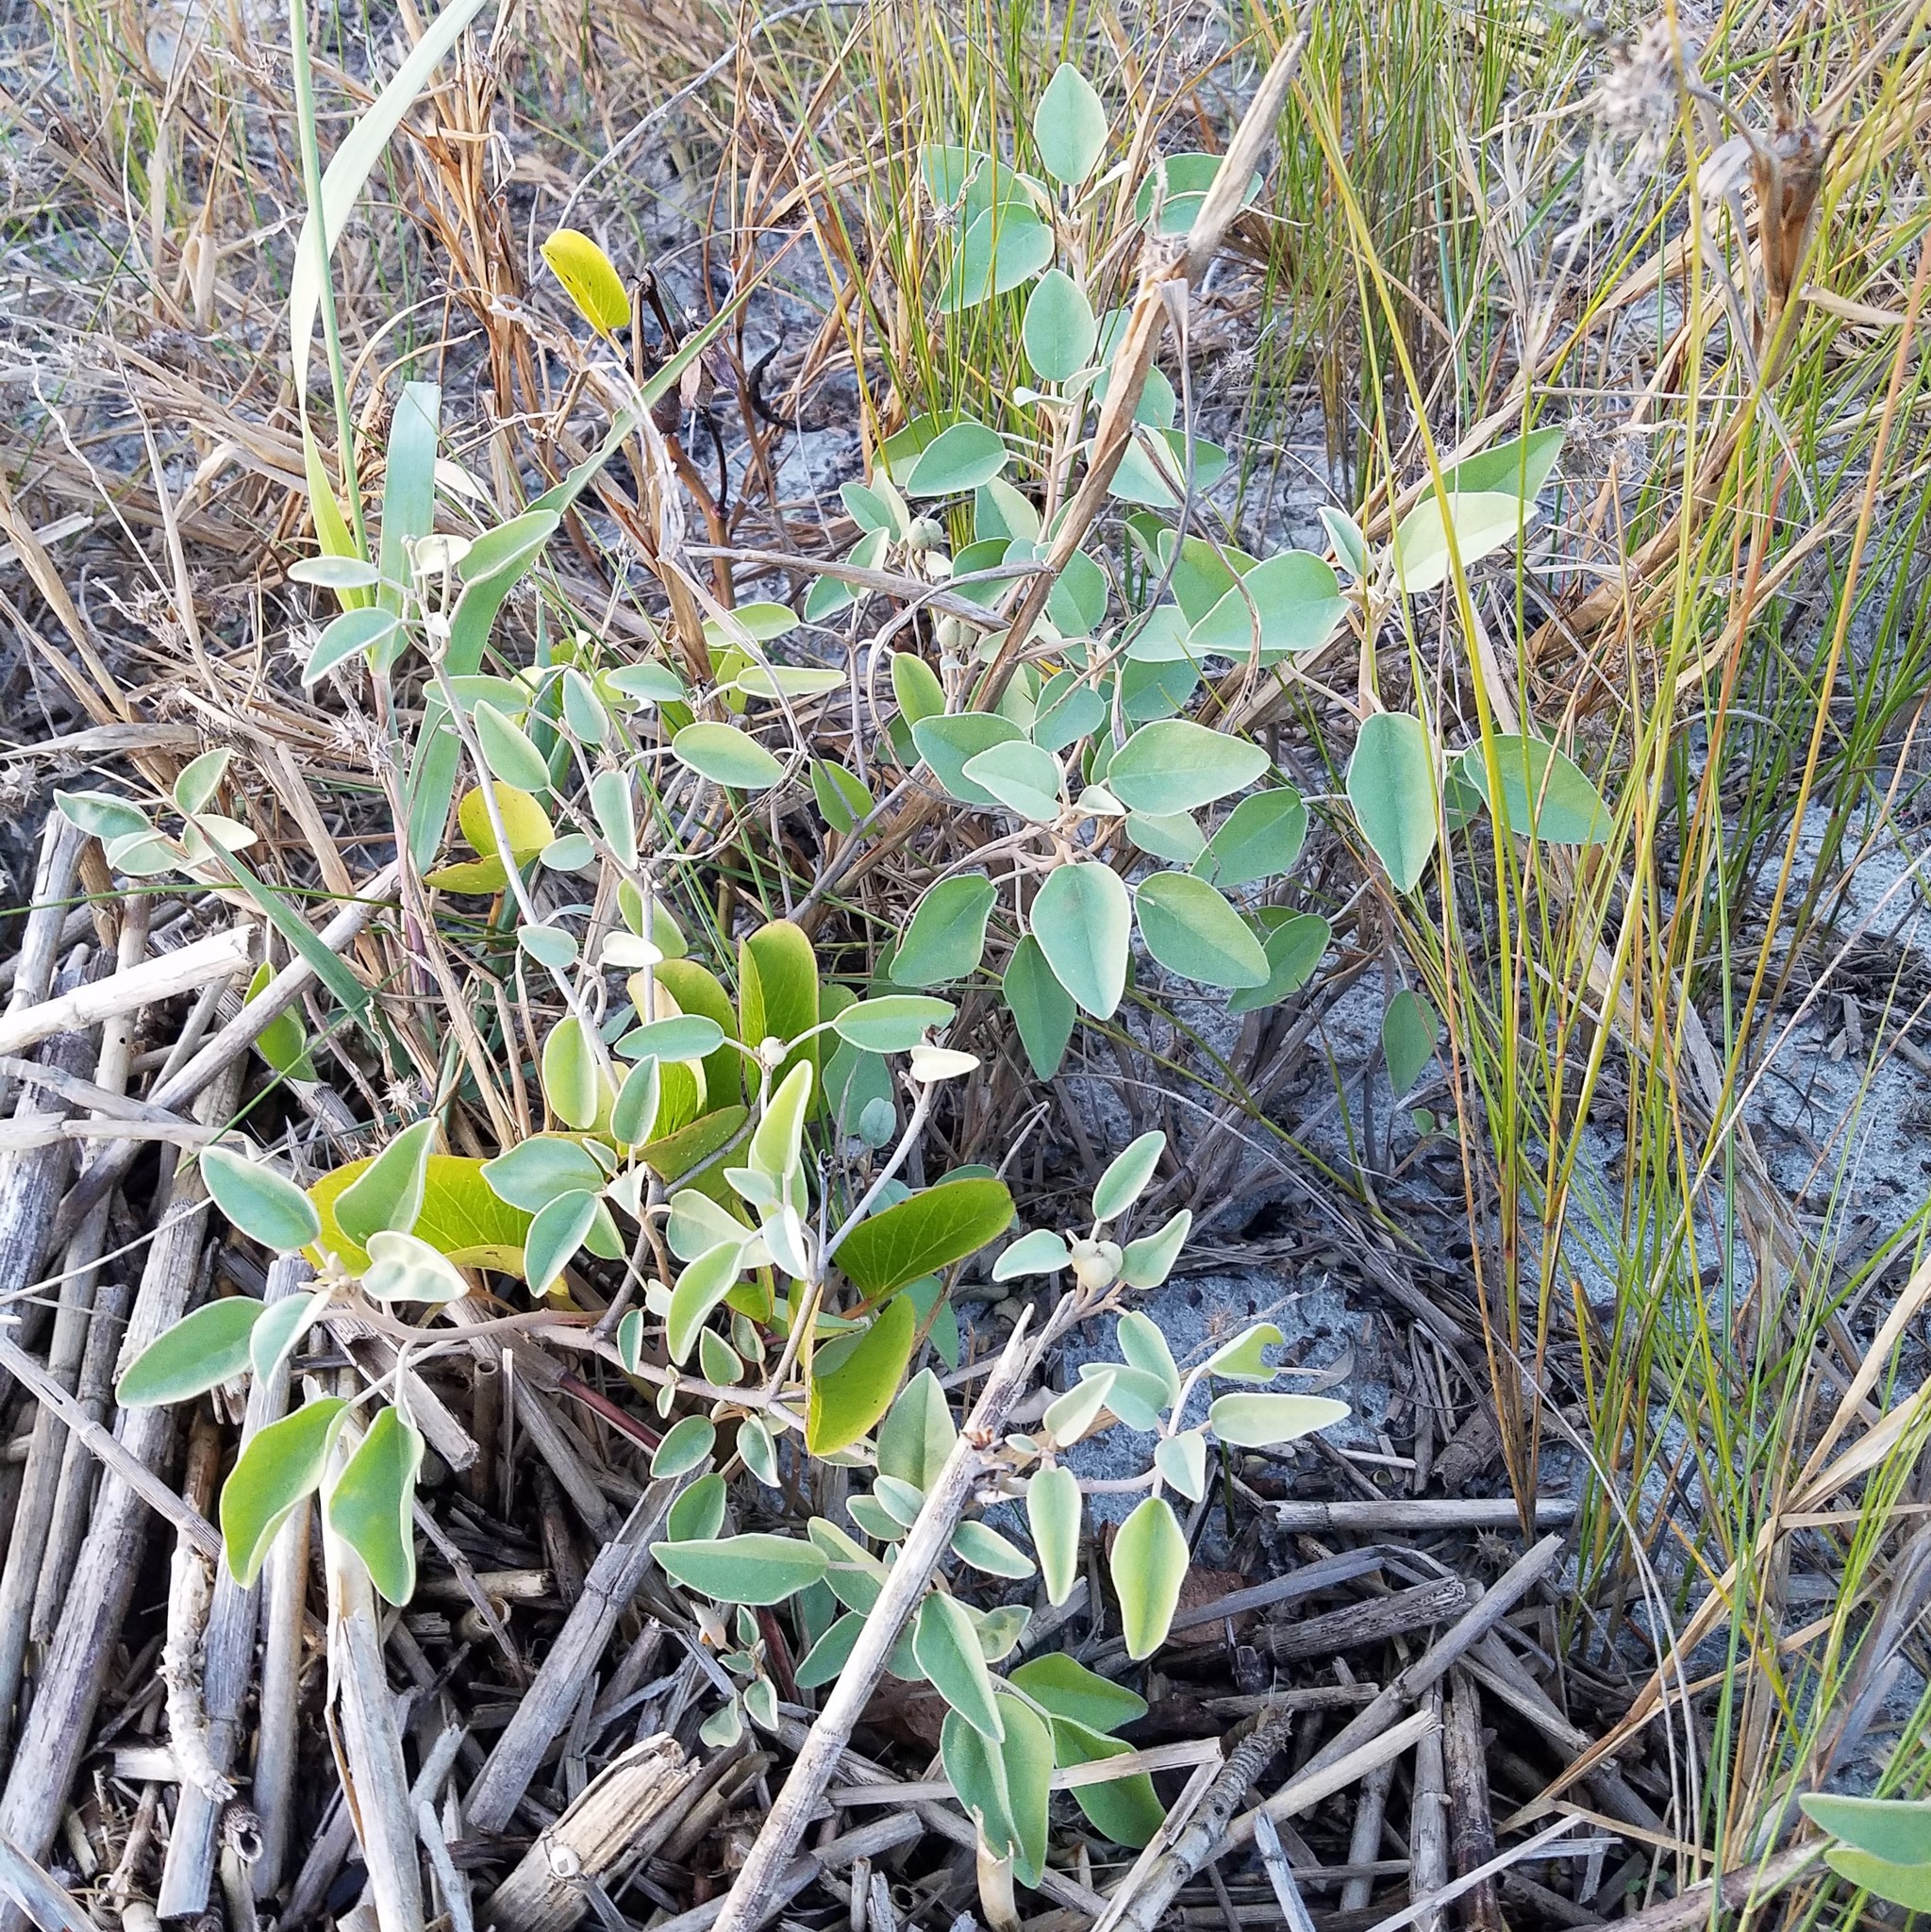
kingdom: Plantae
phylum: Tracheophyta
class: Magnoliopsida
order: Malpighiales
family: Euphorbiaceae
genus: Croton
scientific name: Croton punctatus
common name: Beach-tea
